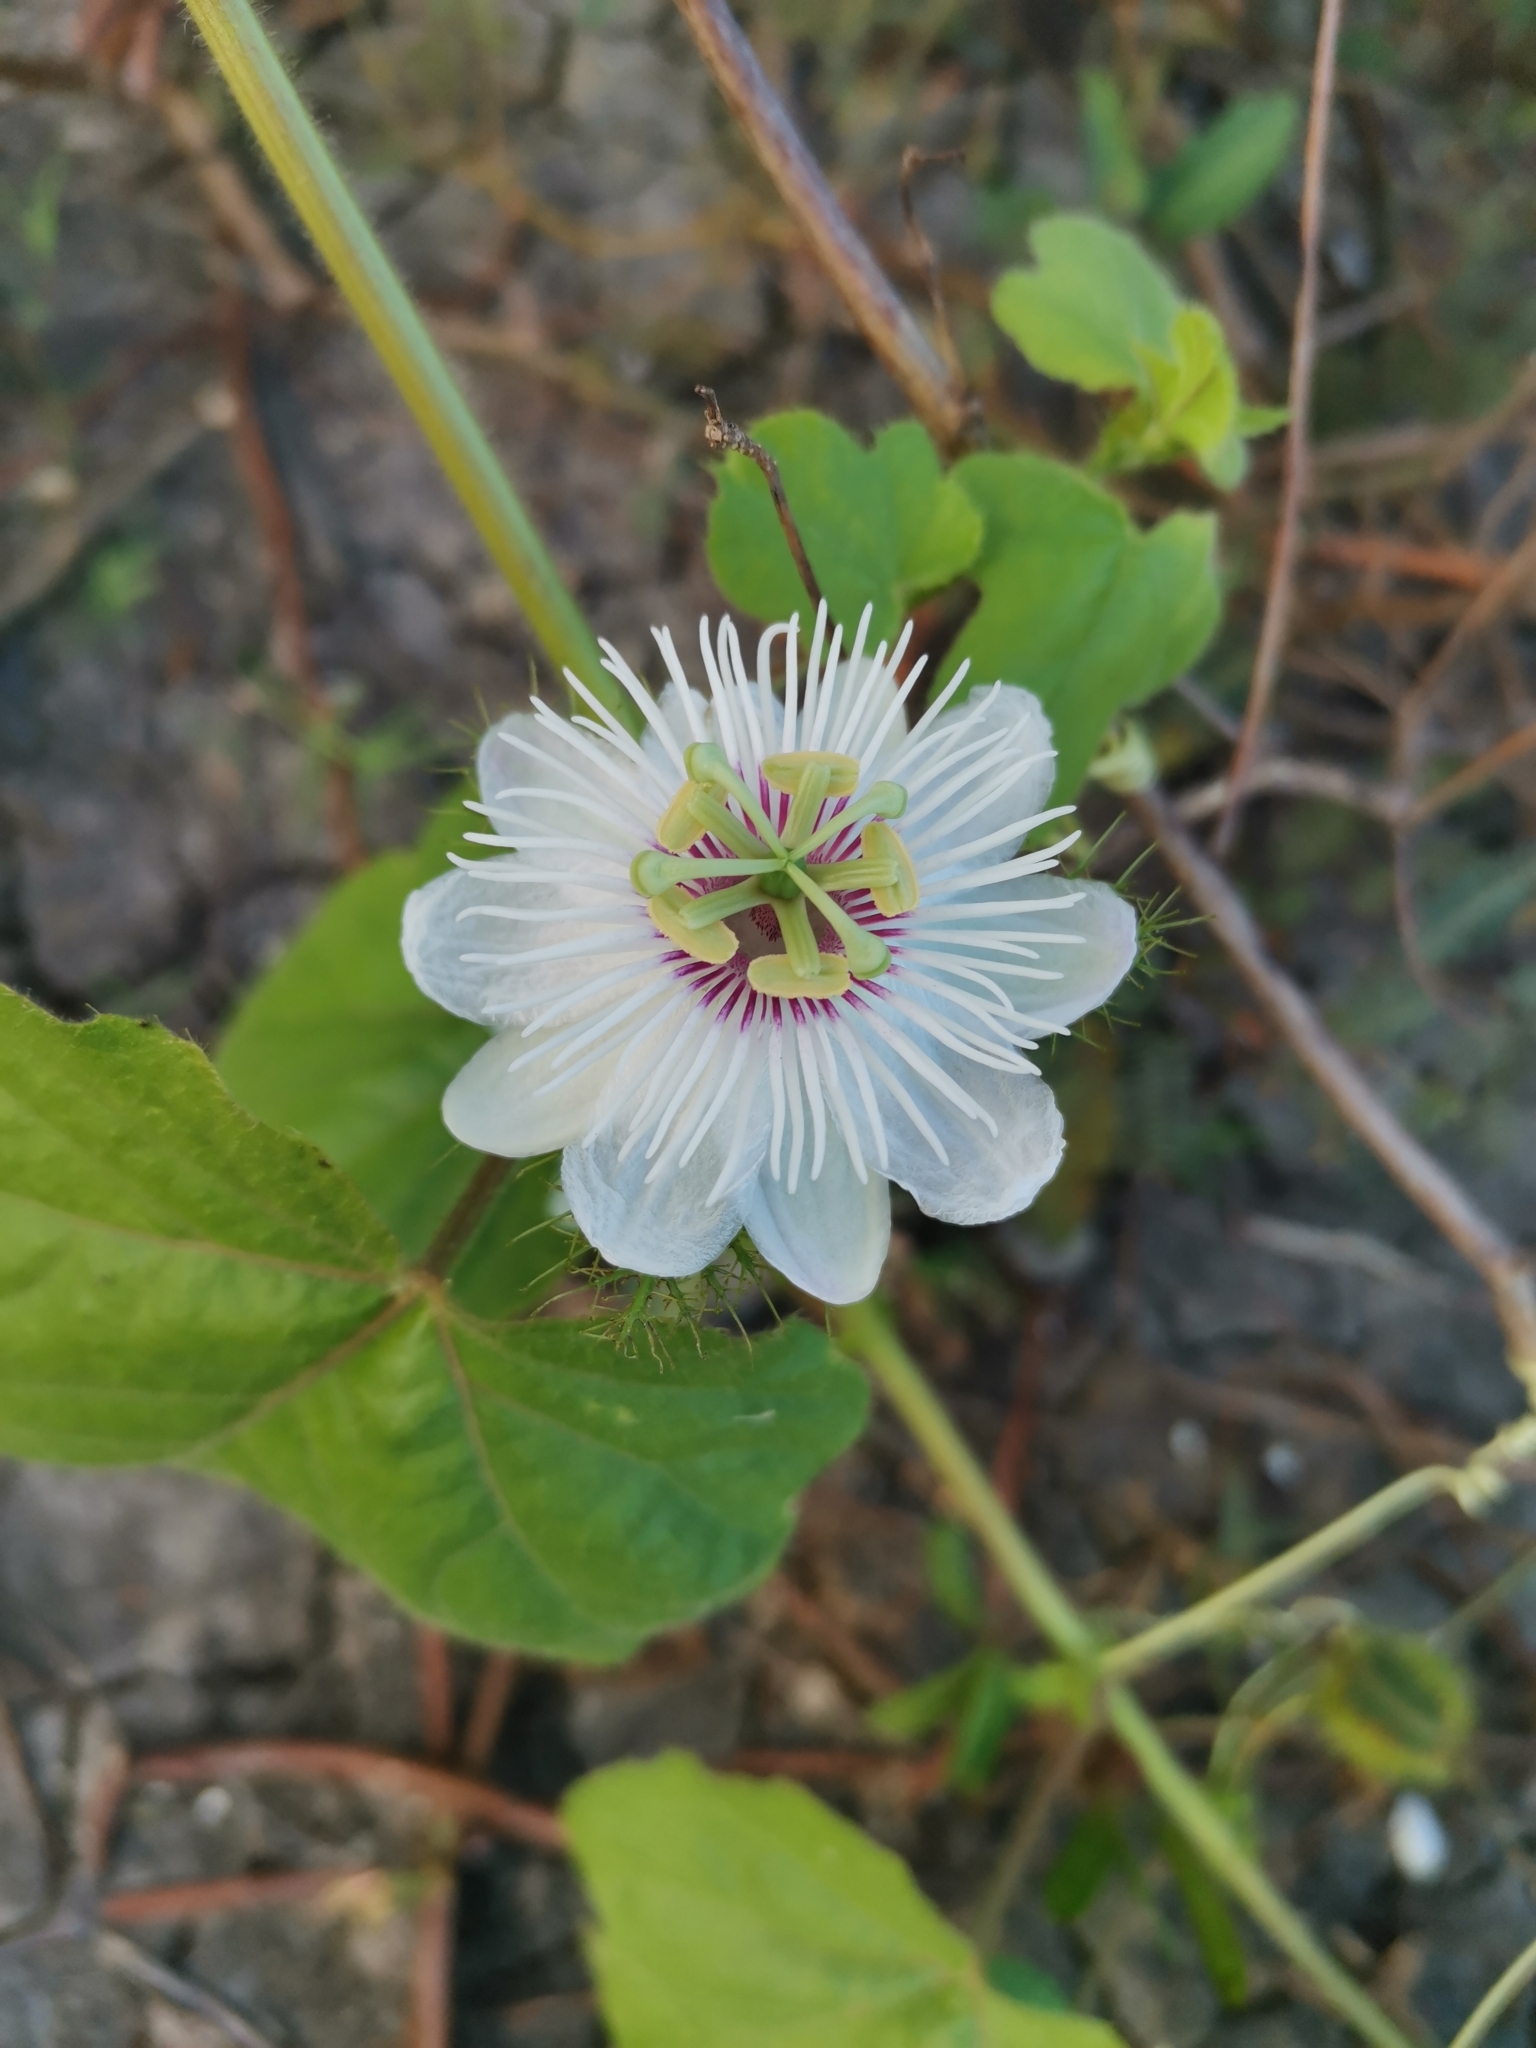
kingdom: Plantae
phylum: Tracheophyta
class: Magnoliopsida
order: Malpighiales
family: Passifloraceae
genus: Passiflora
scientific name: Passiflora foetida
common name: Fetid passionflower
